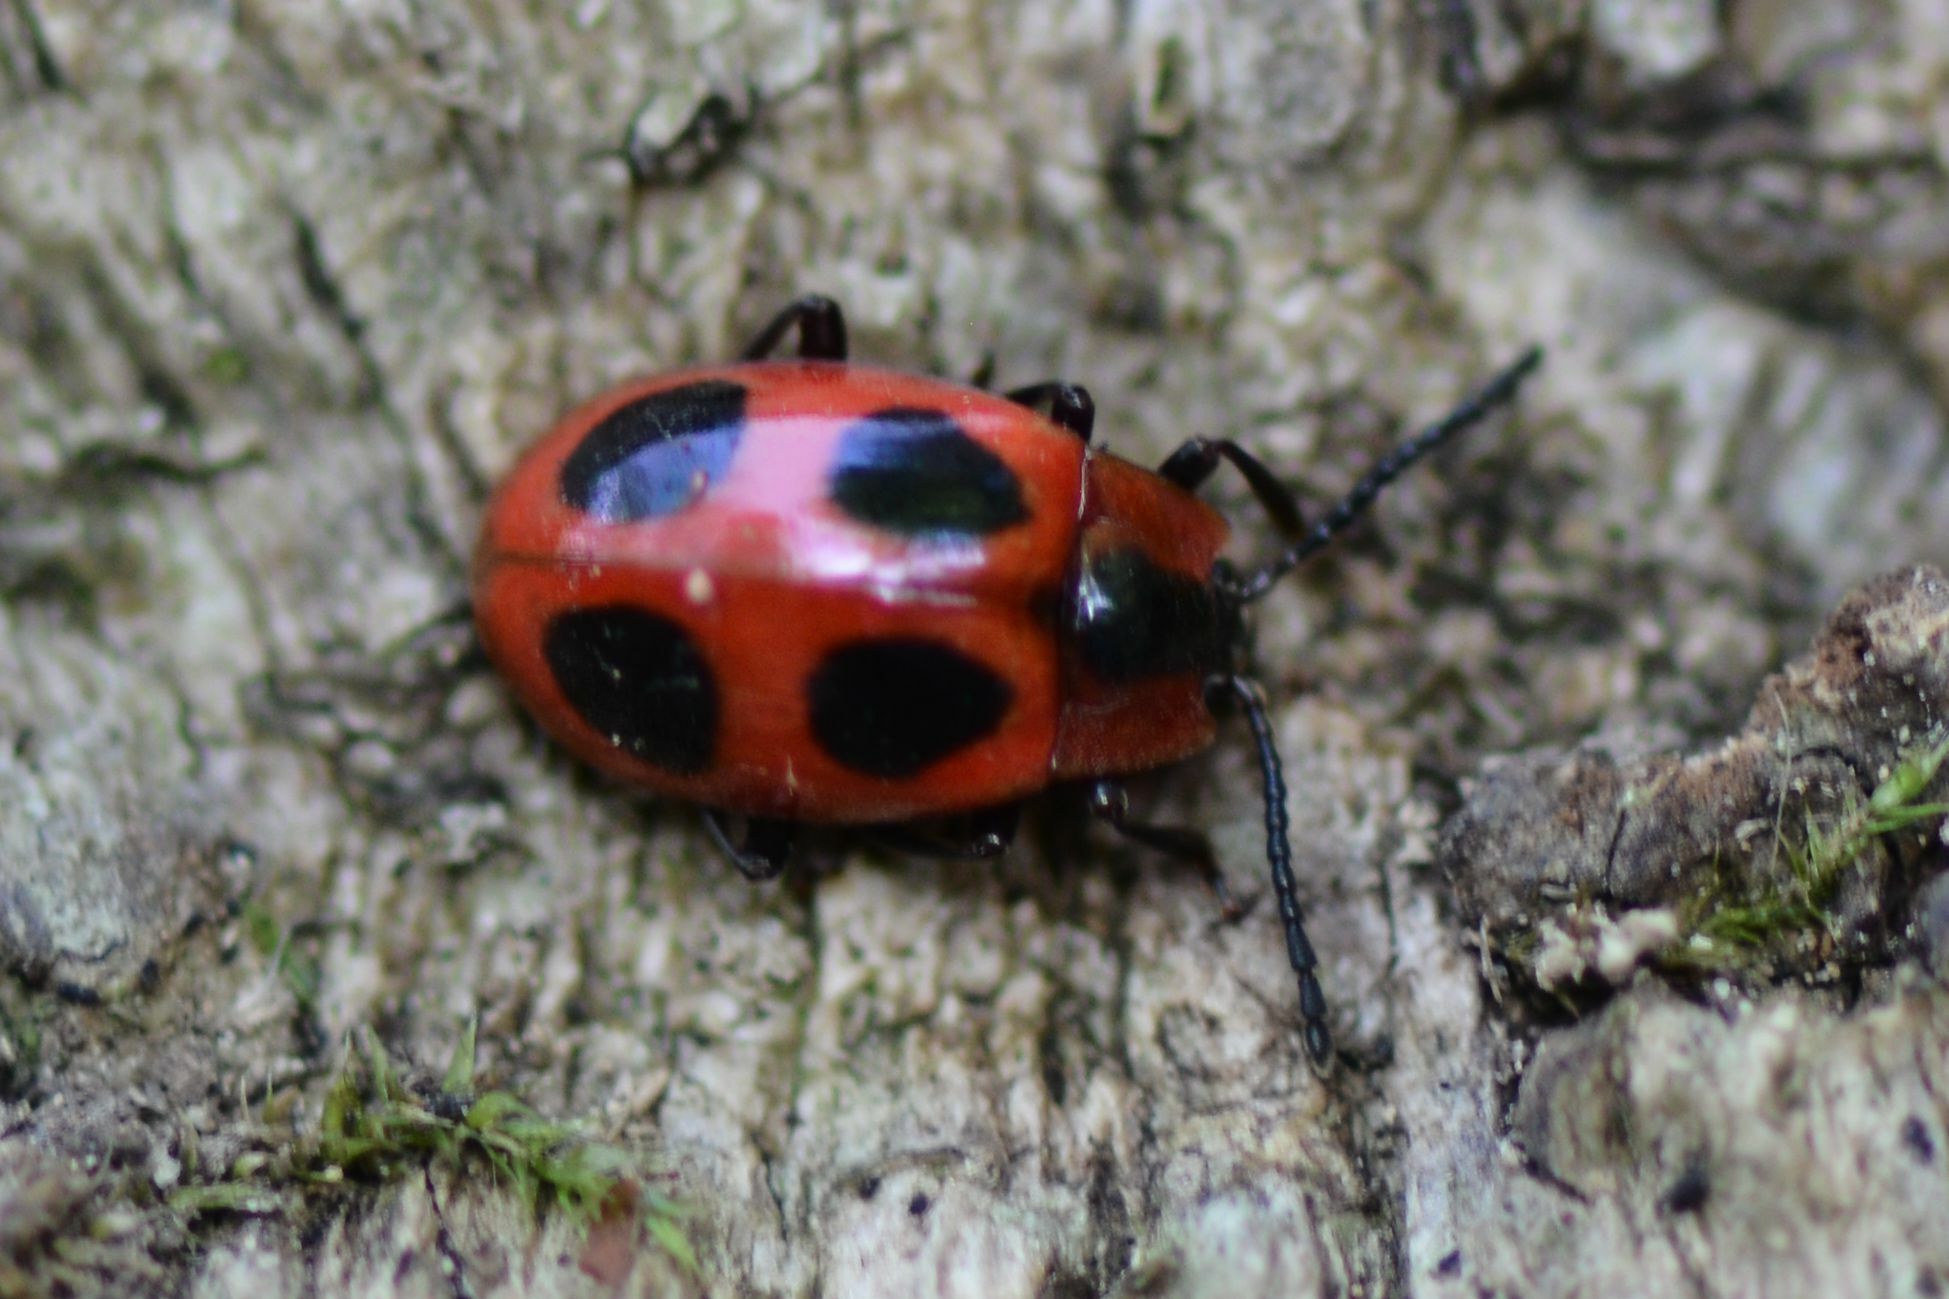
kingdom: Animalia
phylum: Arthropoda
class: Insecta
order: Coleoptera
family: Endomychidae
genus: Endomychus
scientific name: Endomychus coccineus
